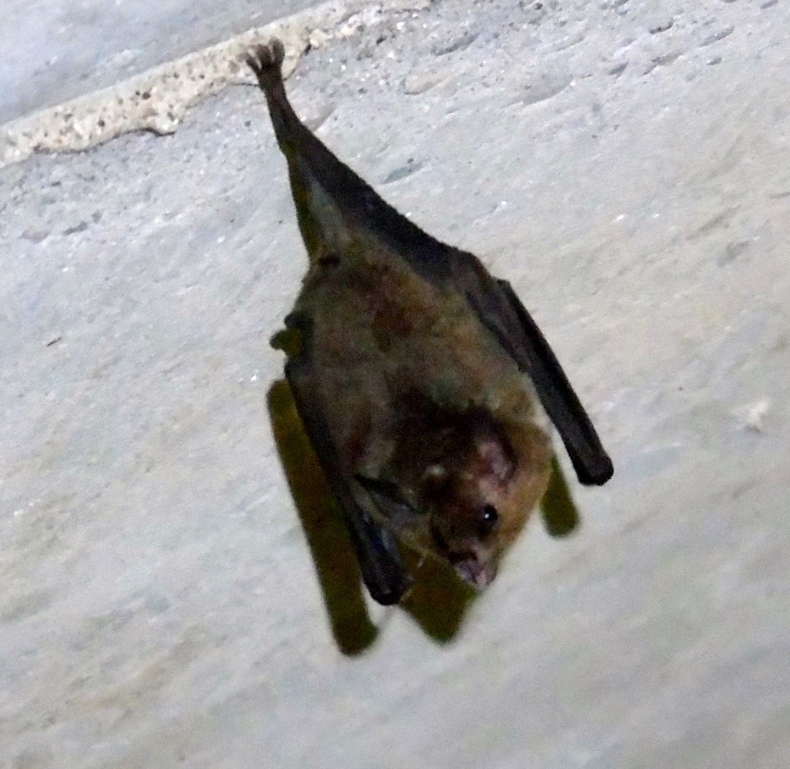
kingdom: Animalia
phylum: Chordata
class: Mammalia
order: Chiroptera
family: Phyllostomidae
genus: Glossophaga
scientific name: Glossophaga
